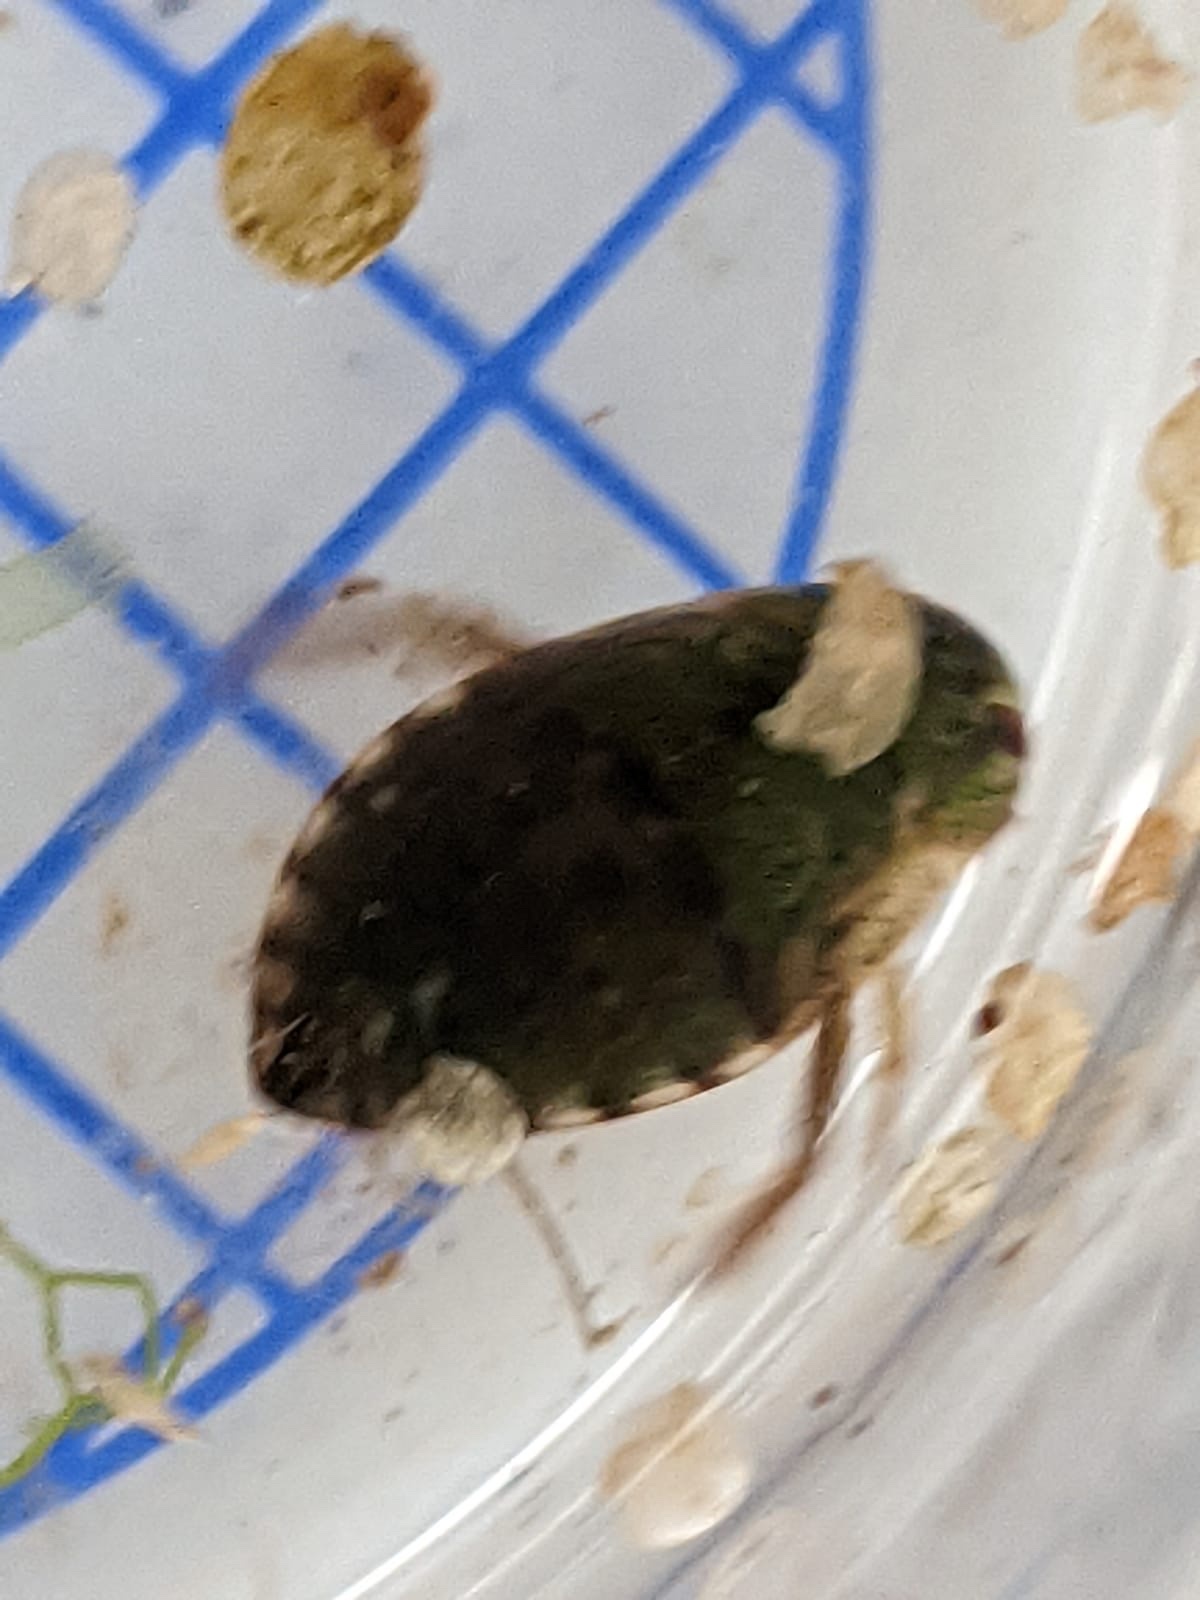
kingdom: Animalia
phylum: Arthropoda
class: Insecta
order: Hemiptera
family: Naucoridae
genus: Ilyocoris
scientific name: Ilyocoris cimicoides
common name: Saucer bugs
